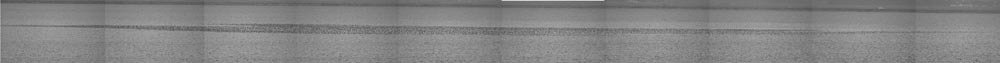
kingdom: Animalia
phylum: Chordata
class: Aves
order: Anseriformes
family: Anatidae
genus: Sibirionetta
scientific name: Sibirionetta formosa
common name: Baikal teal
